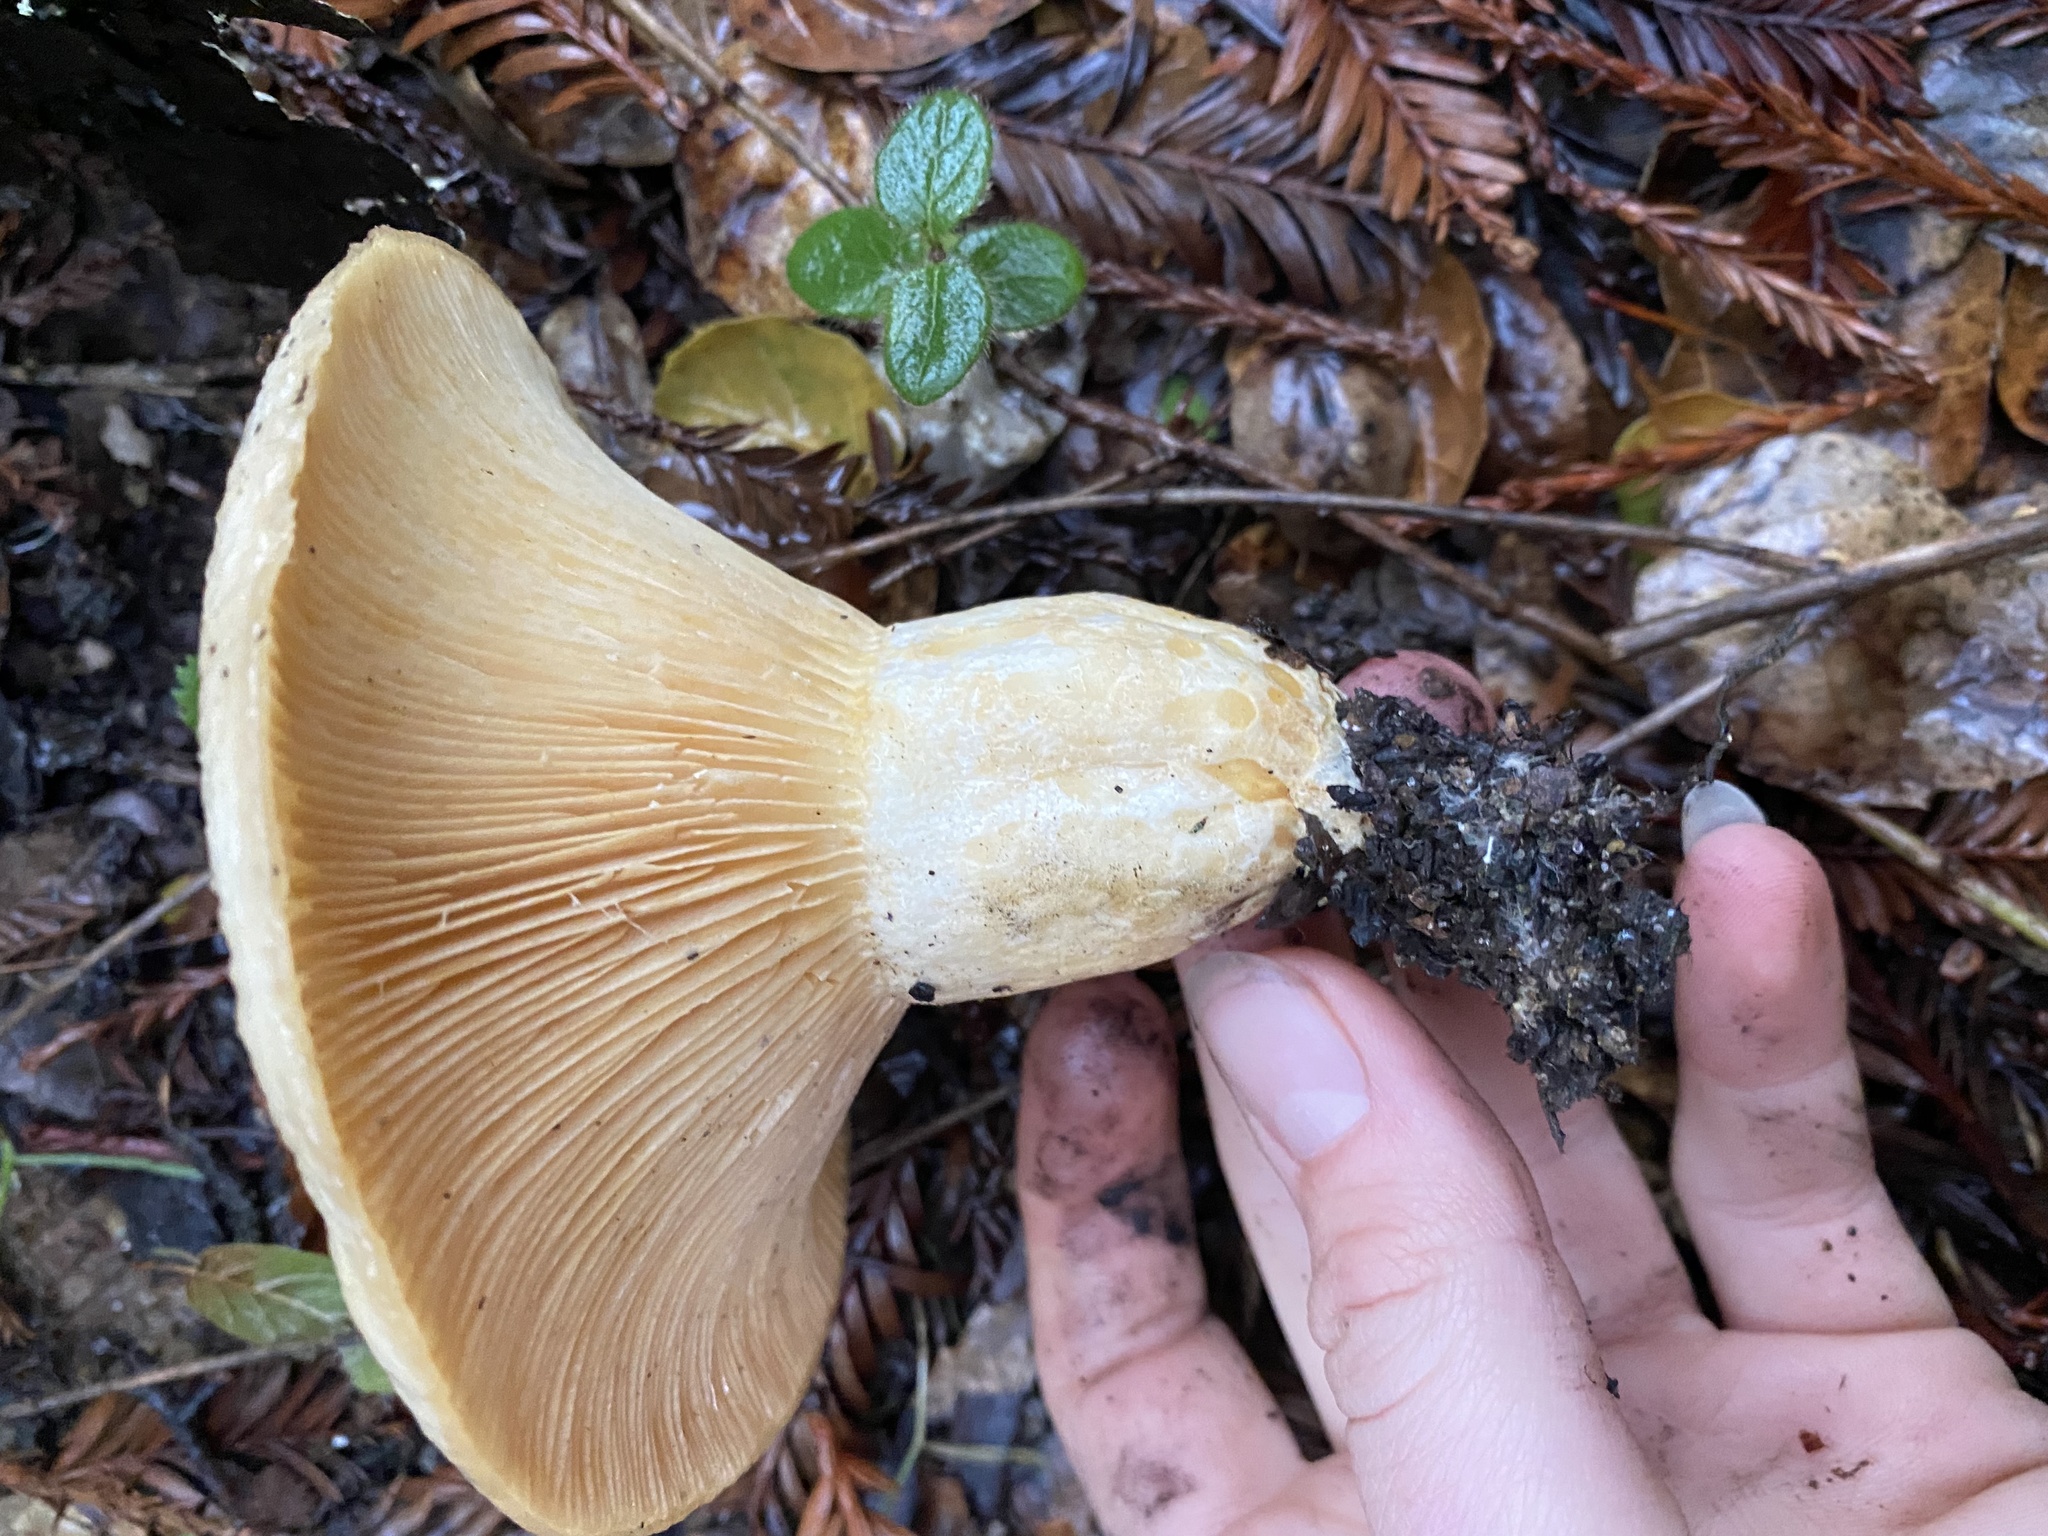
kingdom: Fungi
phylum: Basidiomycota
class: Agaricomycetes
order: Russulales
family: Russulaceae
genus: Lactarius
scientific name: Lactarius alnicola
